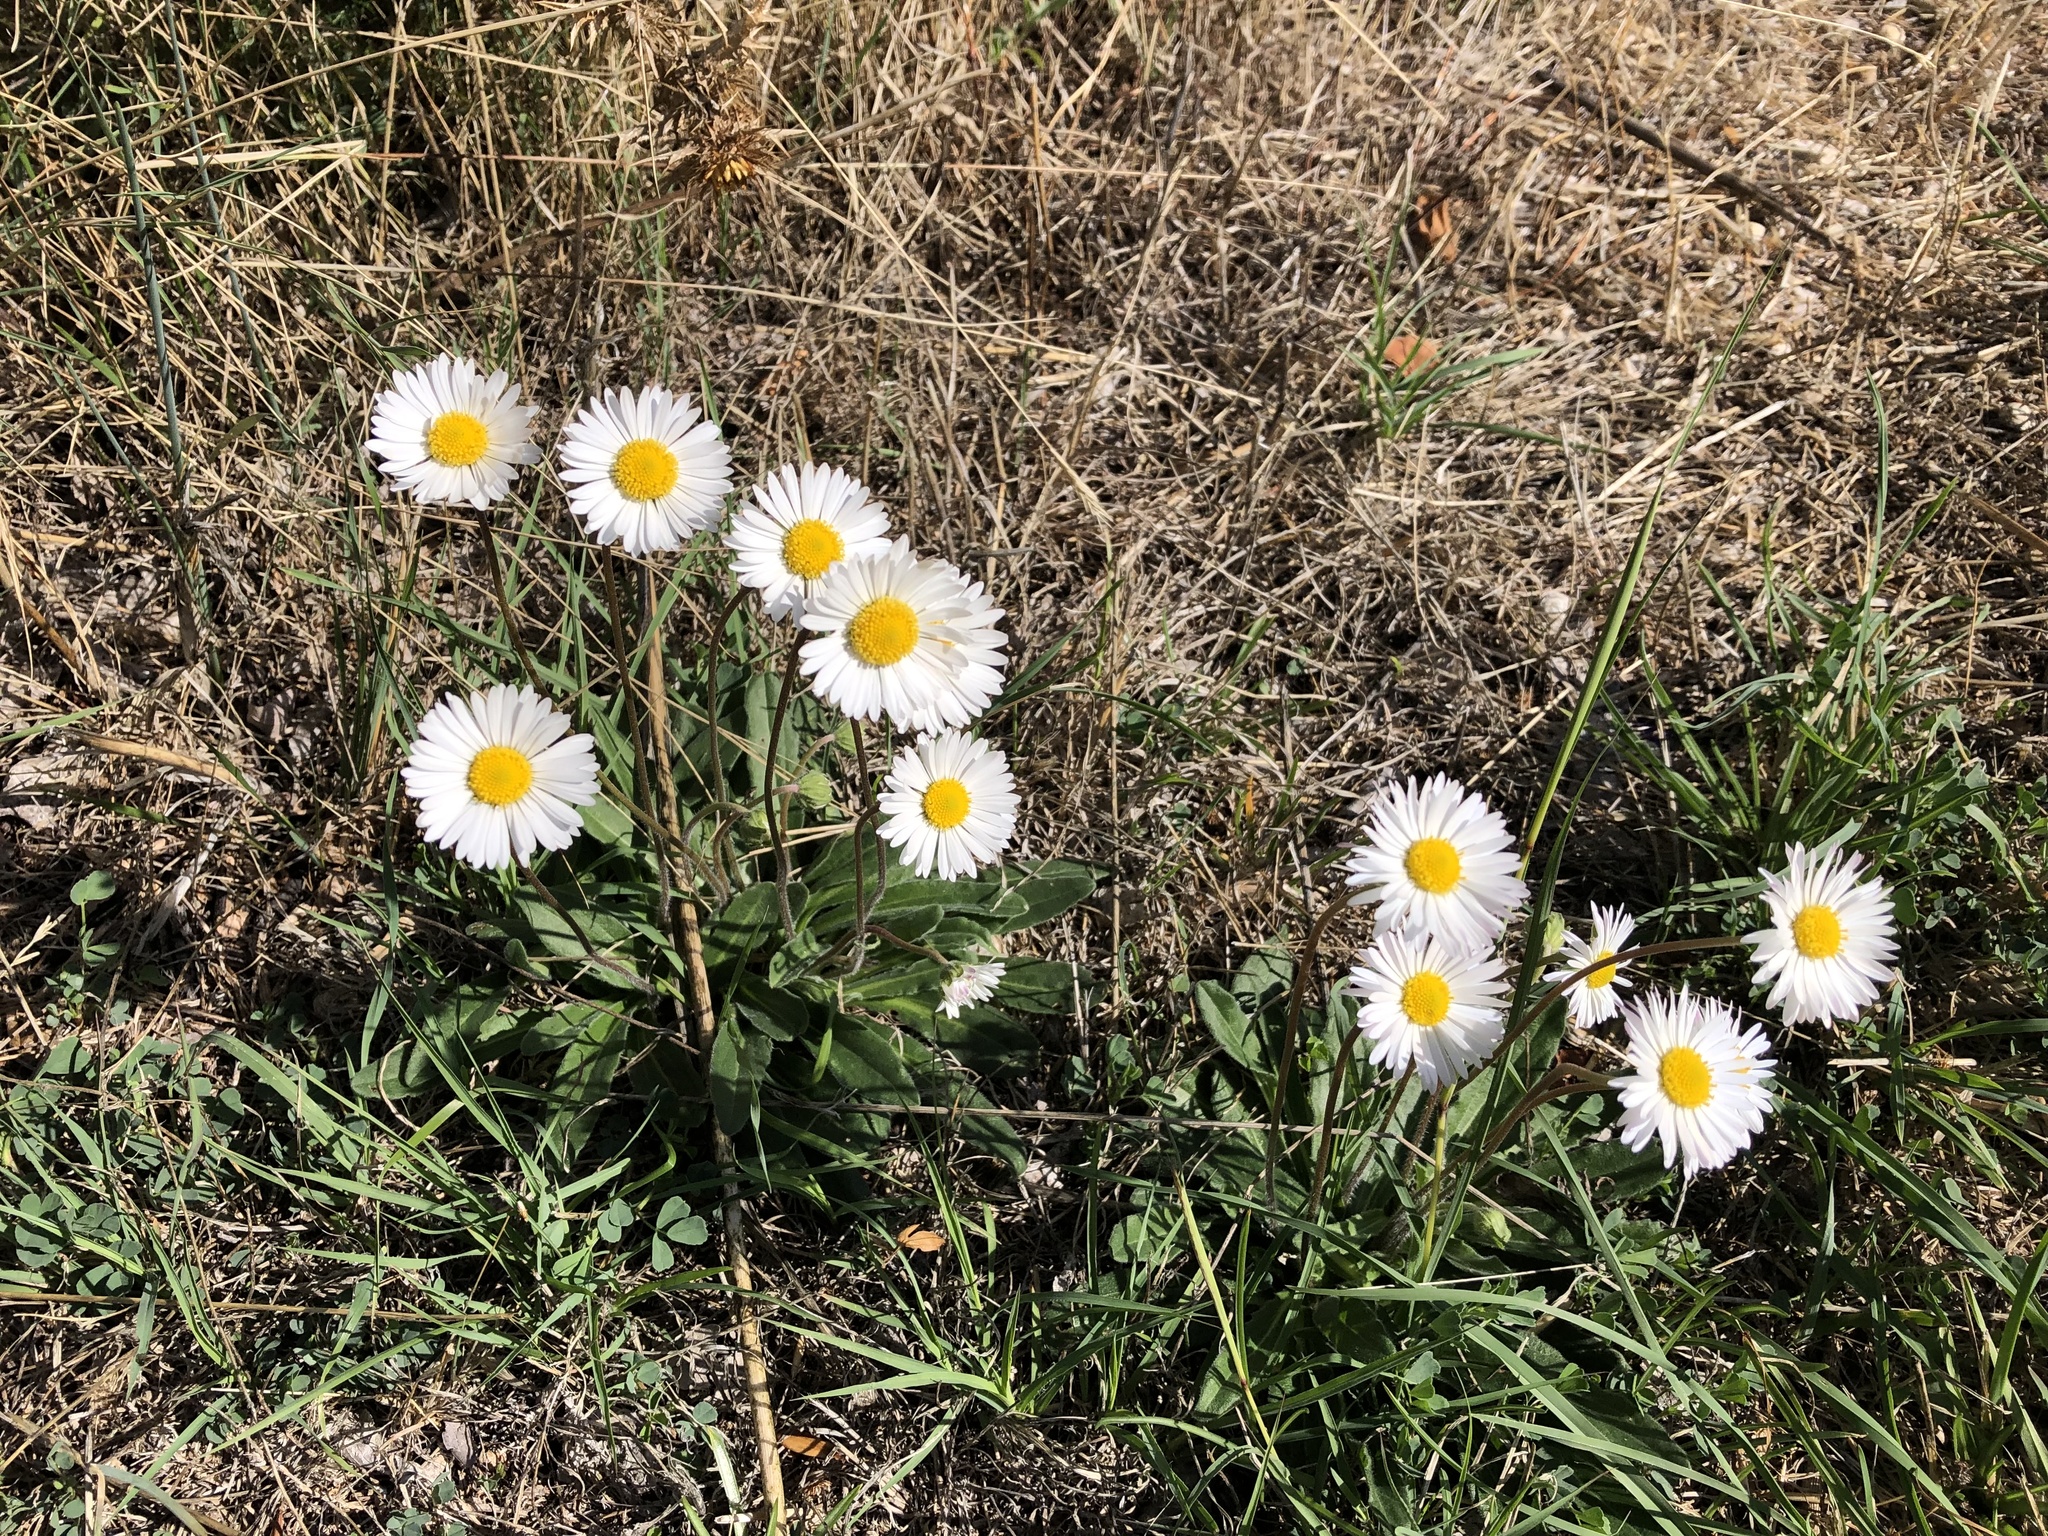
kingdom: Plantae
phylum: Tracheophyta
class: Magnoliopsida
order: Asterales
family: Asteraceae
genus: Bellis
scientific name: Bellis perennis
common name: Lawndaisy
